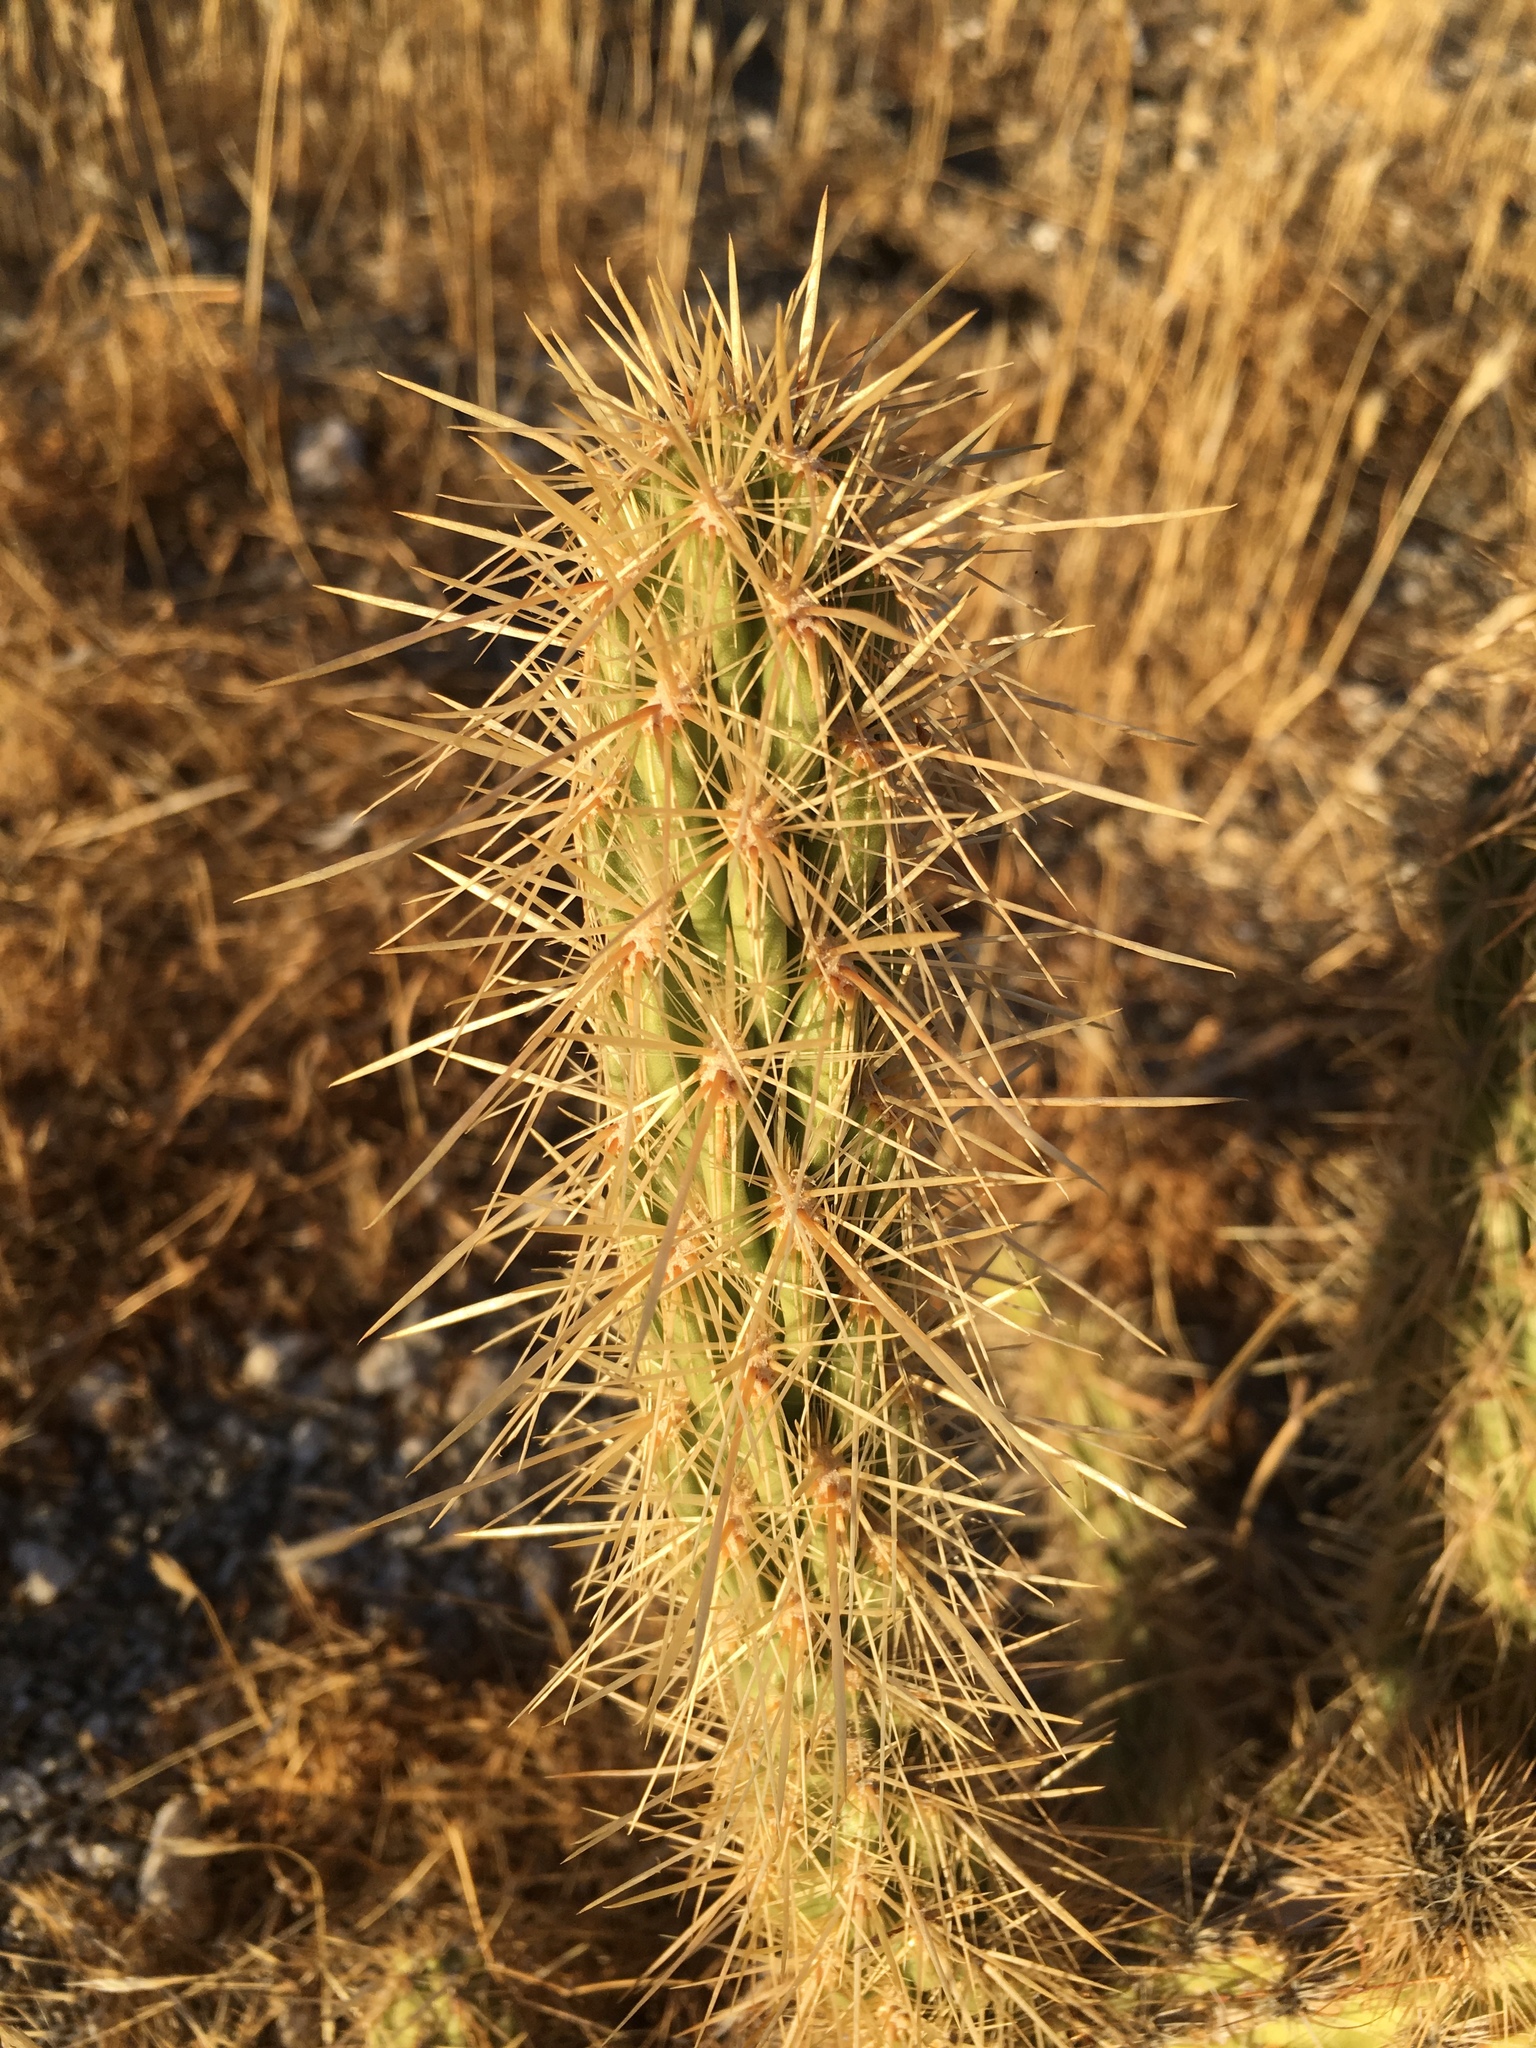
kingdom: Plantae
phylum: Tracheophyta
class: Magnoliopsida
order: Caryophyllales
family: Cactaceae
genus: Cylindropuntia
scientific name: Cylindropuntia ganderi
